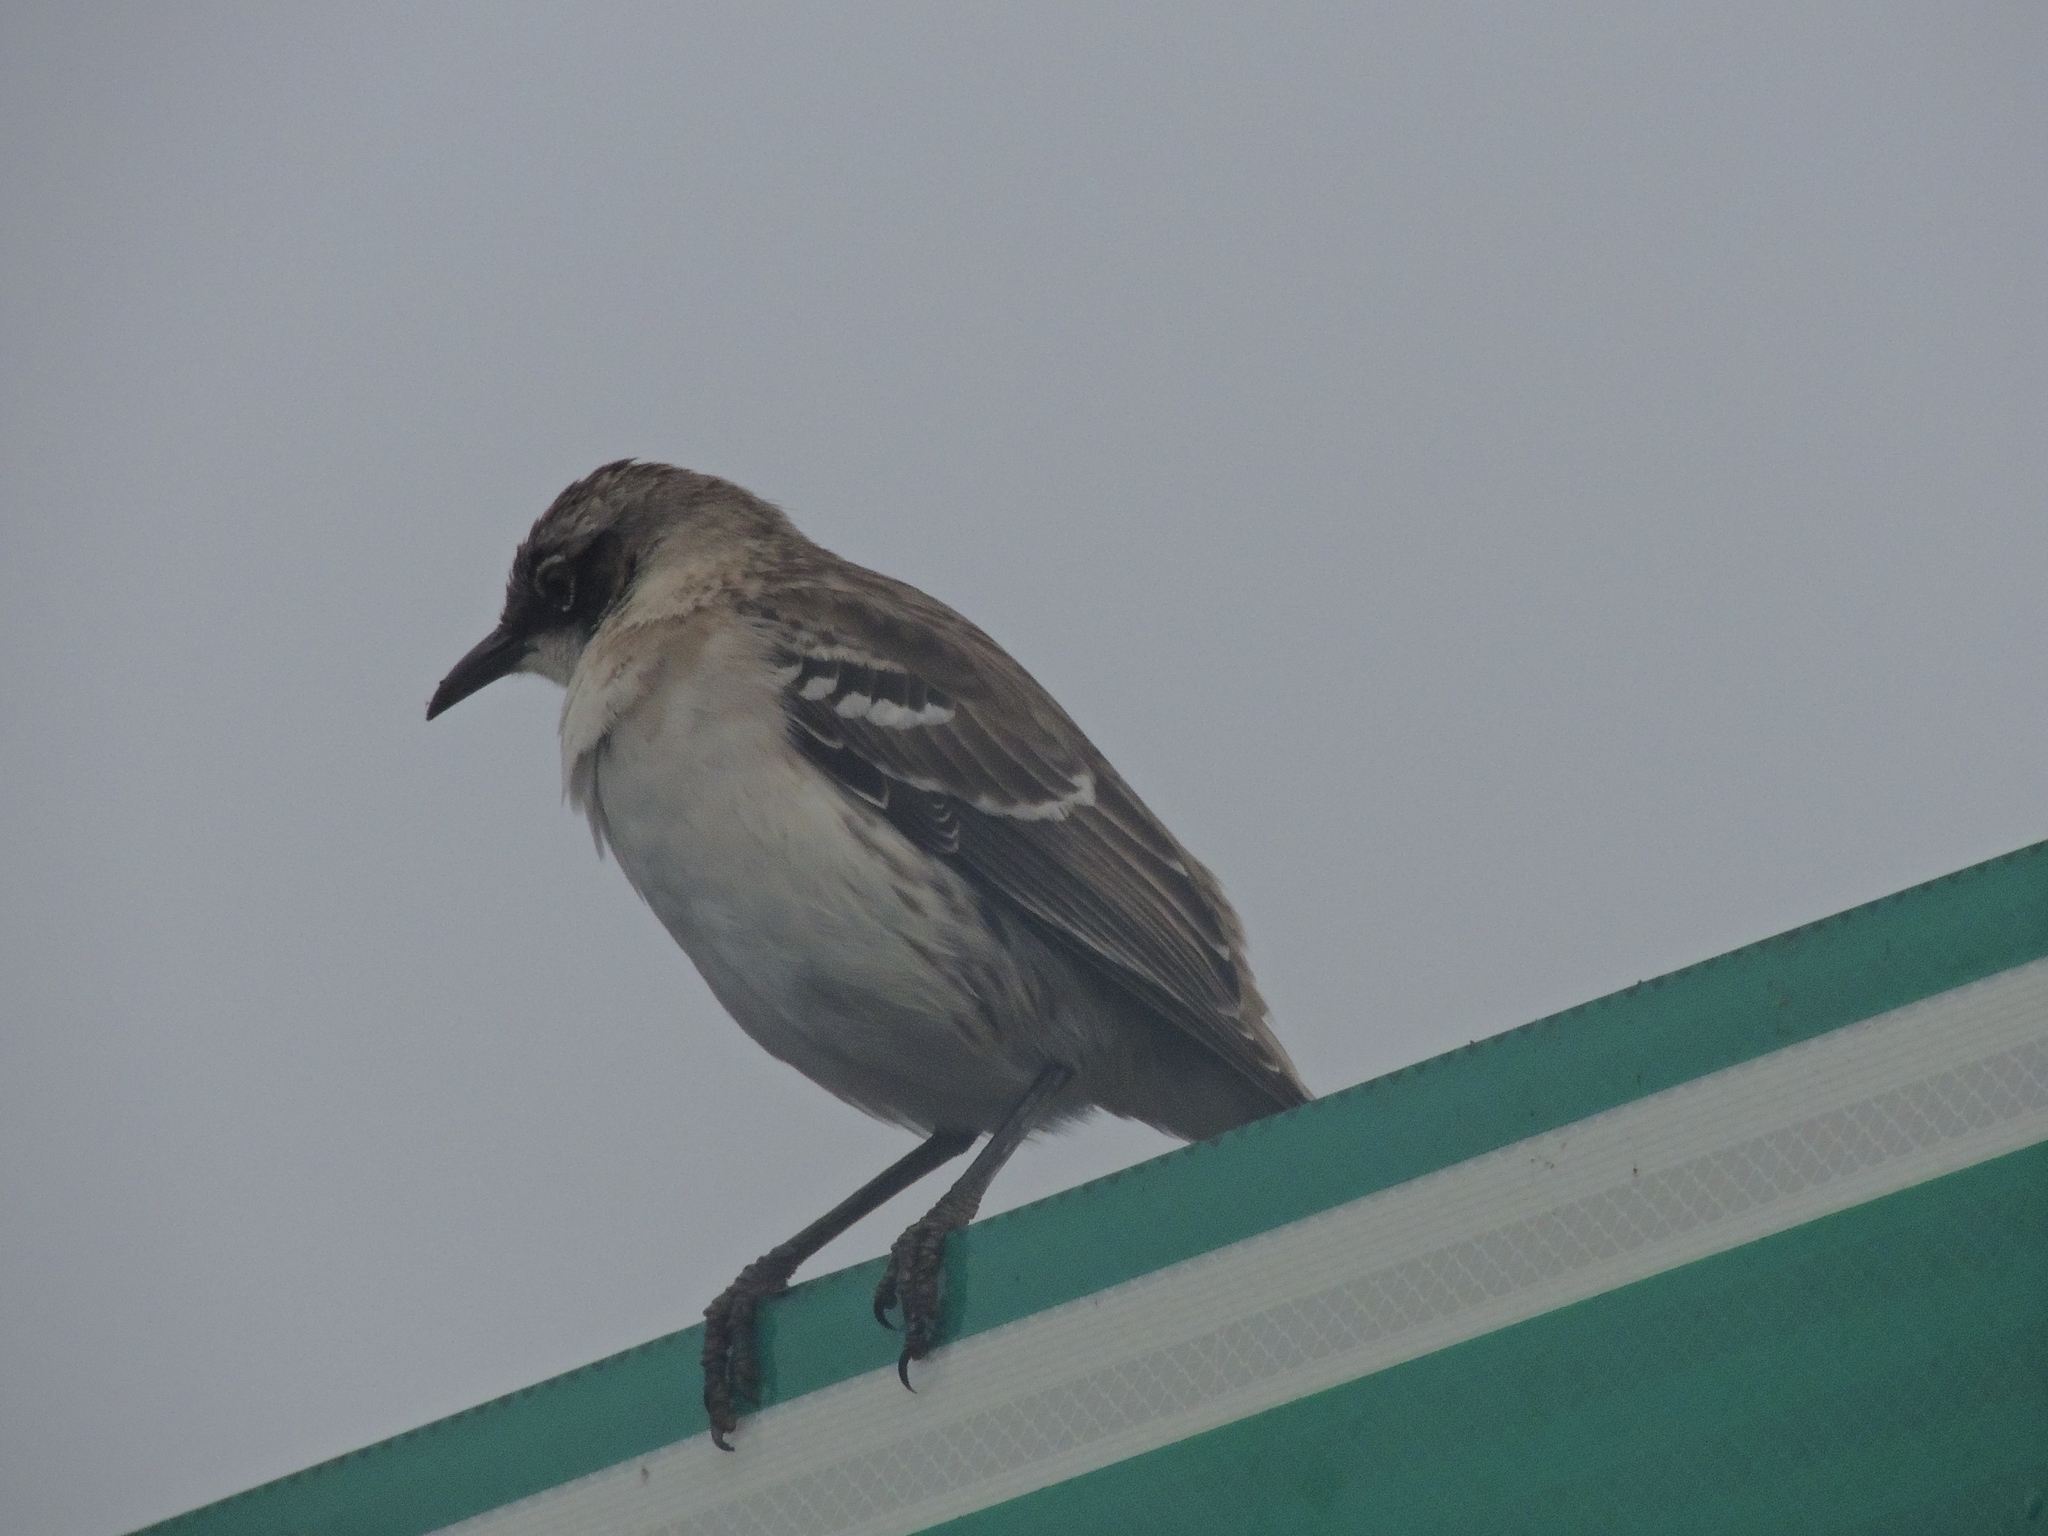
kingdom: Animalia
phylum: Chordata
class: Aves
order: Passeriformes
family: Mimidae
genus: Mimus
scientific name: Mimus parvulus
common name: Galapagos mockingbird
